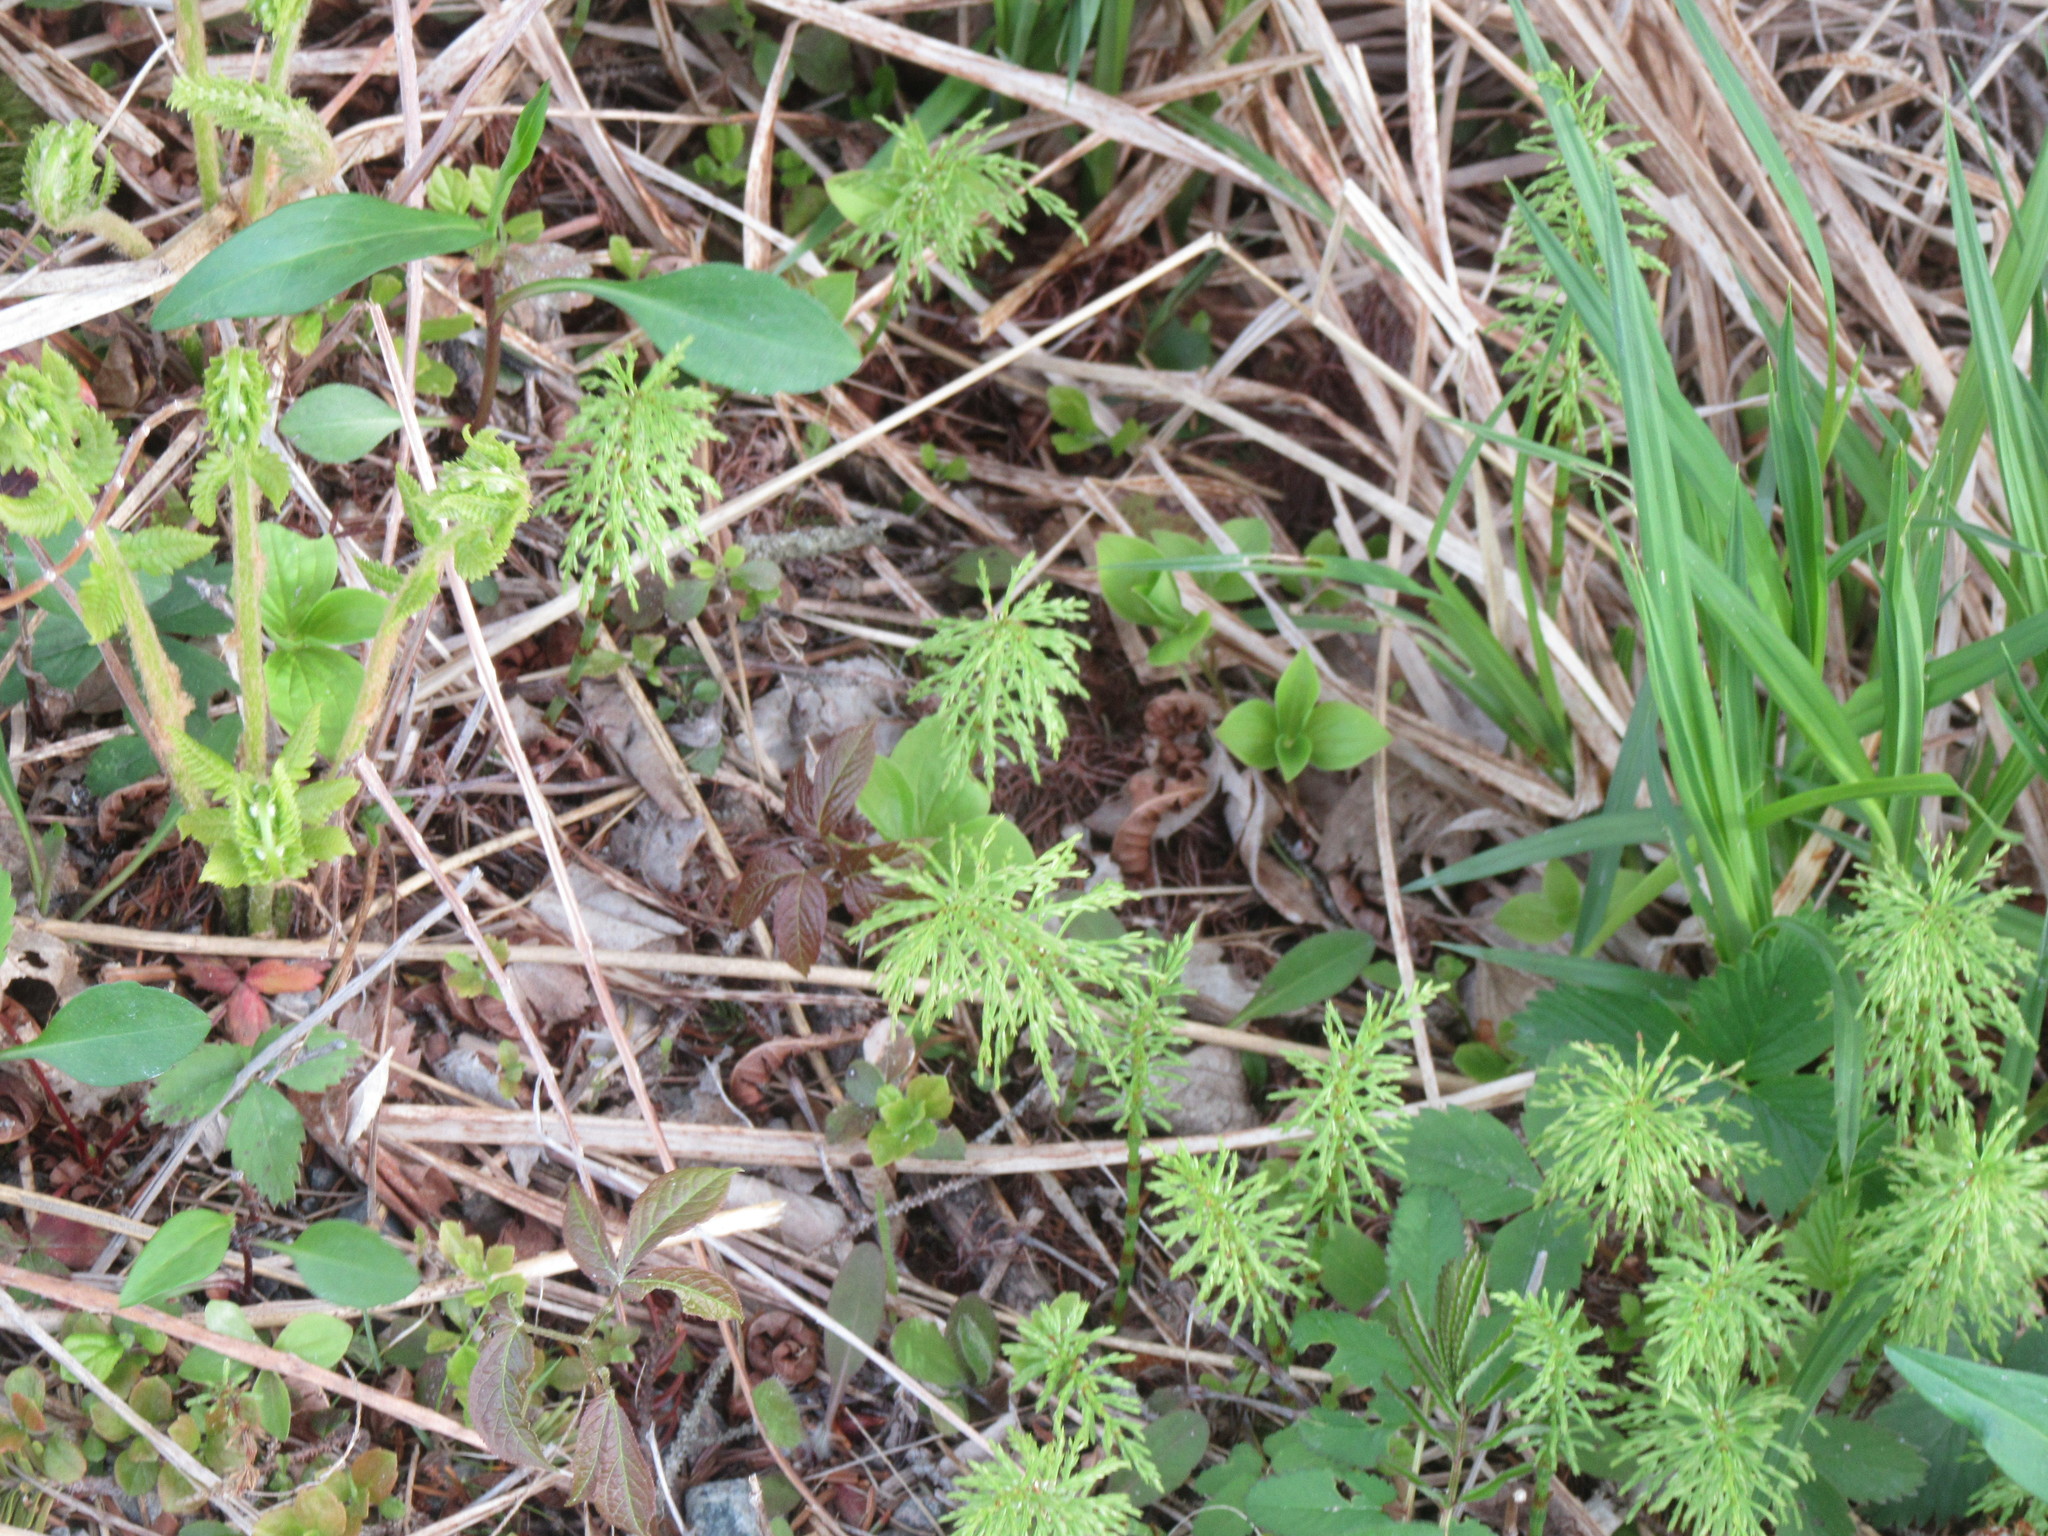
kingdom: Plantae
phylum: Tracheophyta
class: Polypodiopsida
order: Equisetales
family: Equisetaceae
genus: Equisetum
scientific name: Equisetum sylvaticum
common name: Wood horsetail
